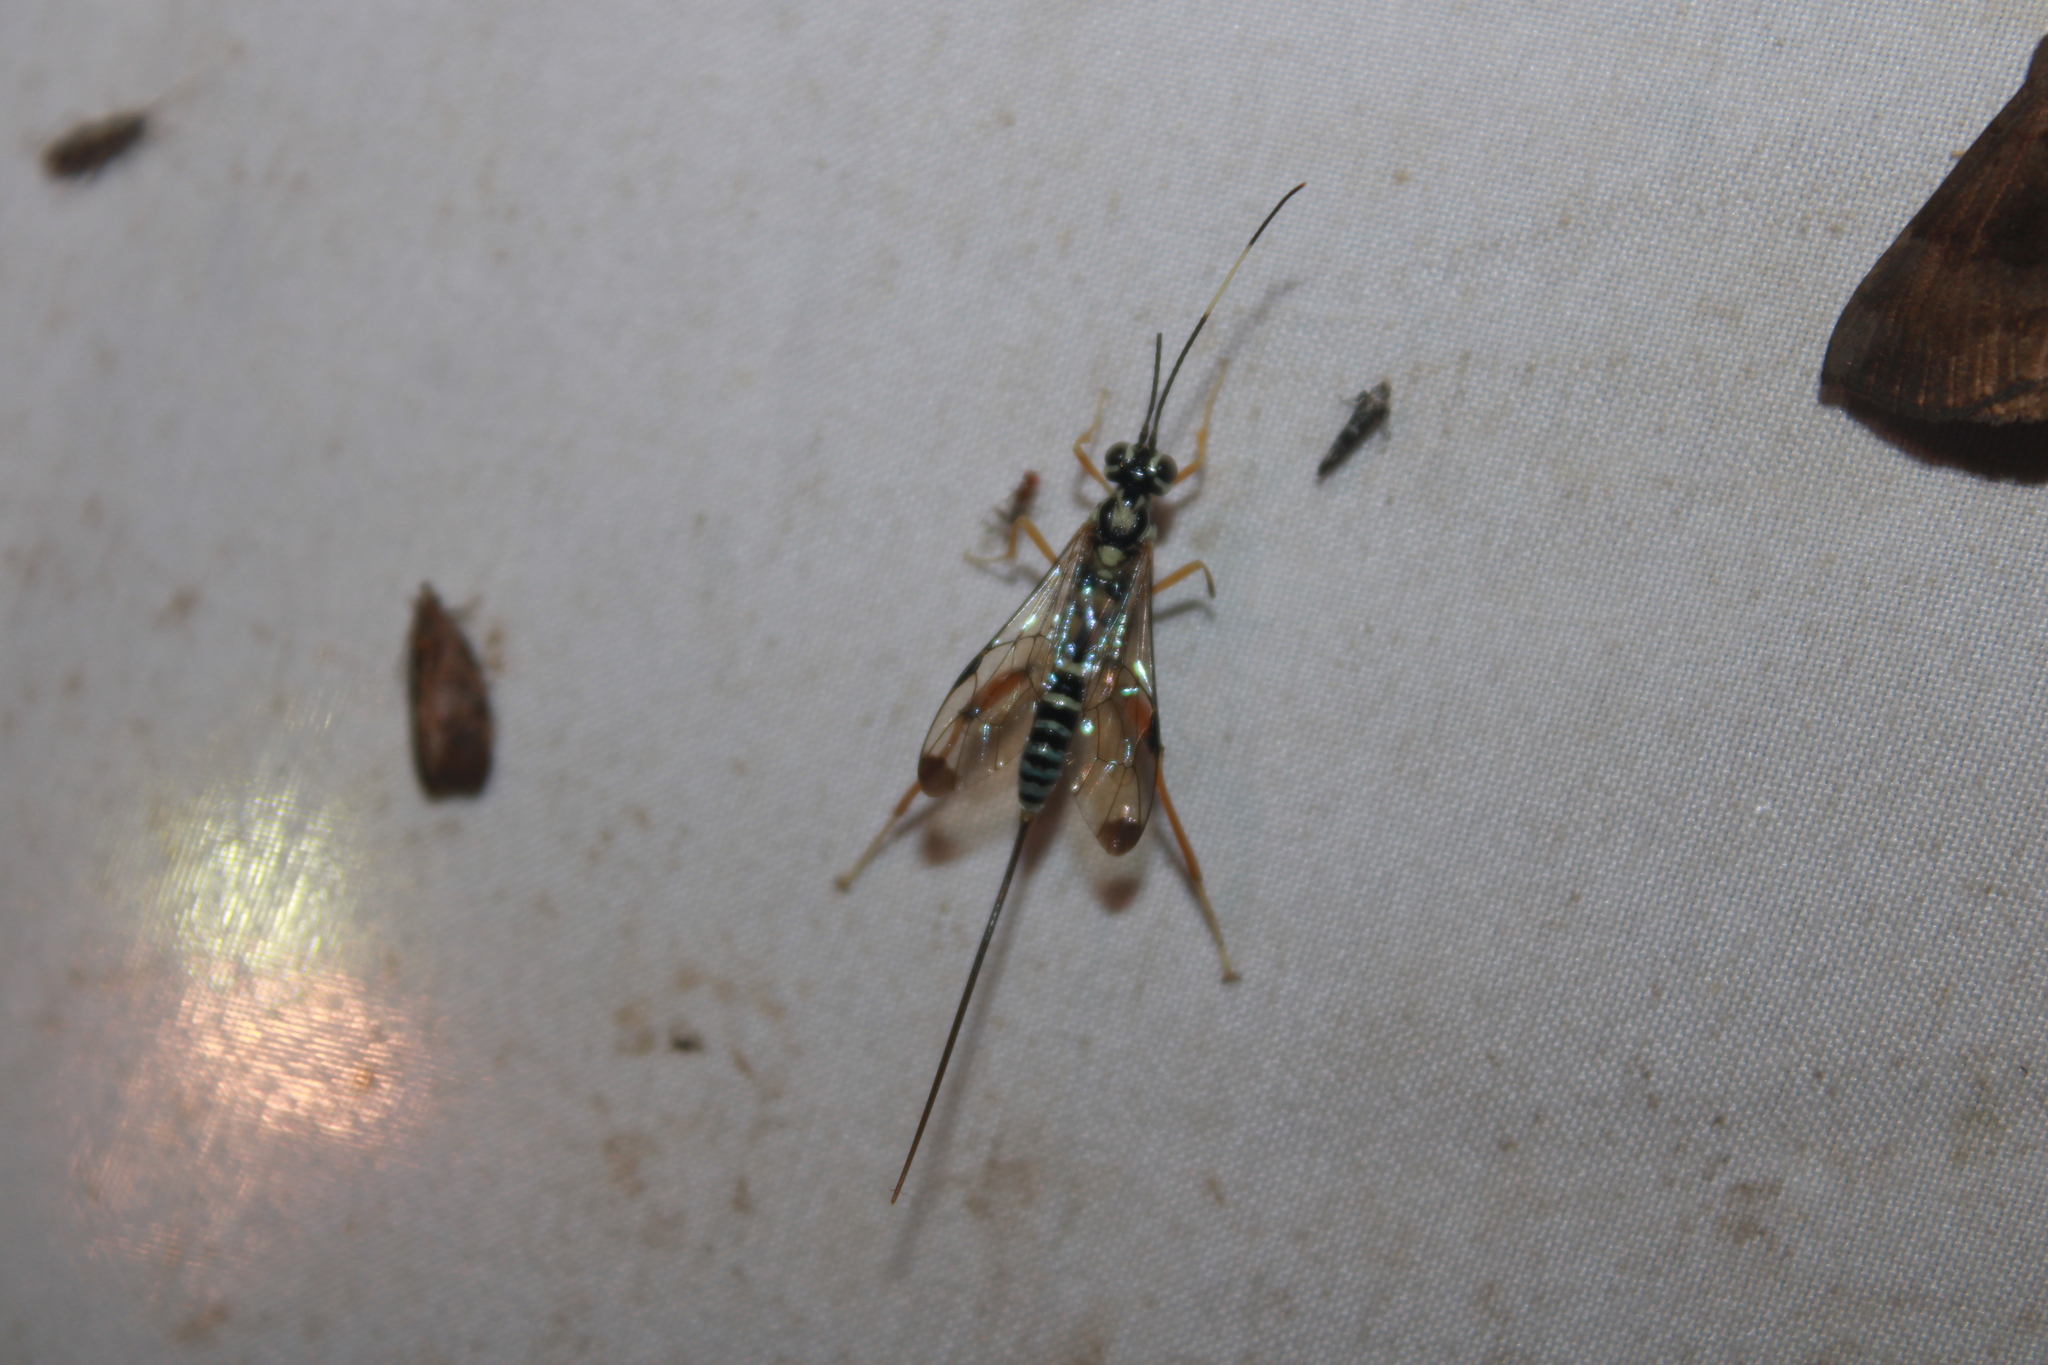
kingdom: Animalia
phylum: Arthropoda
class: Insecta
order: Hymenoptera
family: Ichneumonidae
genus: Arotes
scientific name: Arotes decorus
